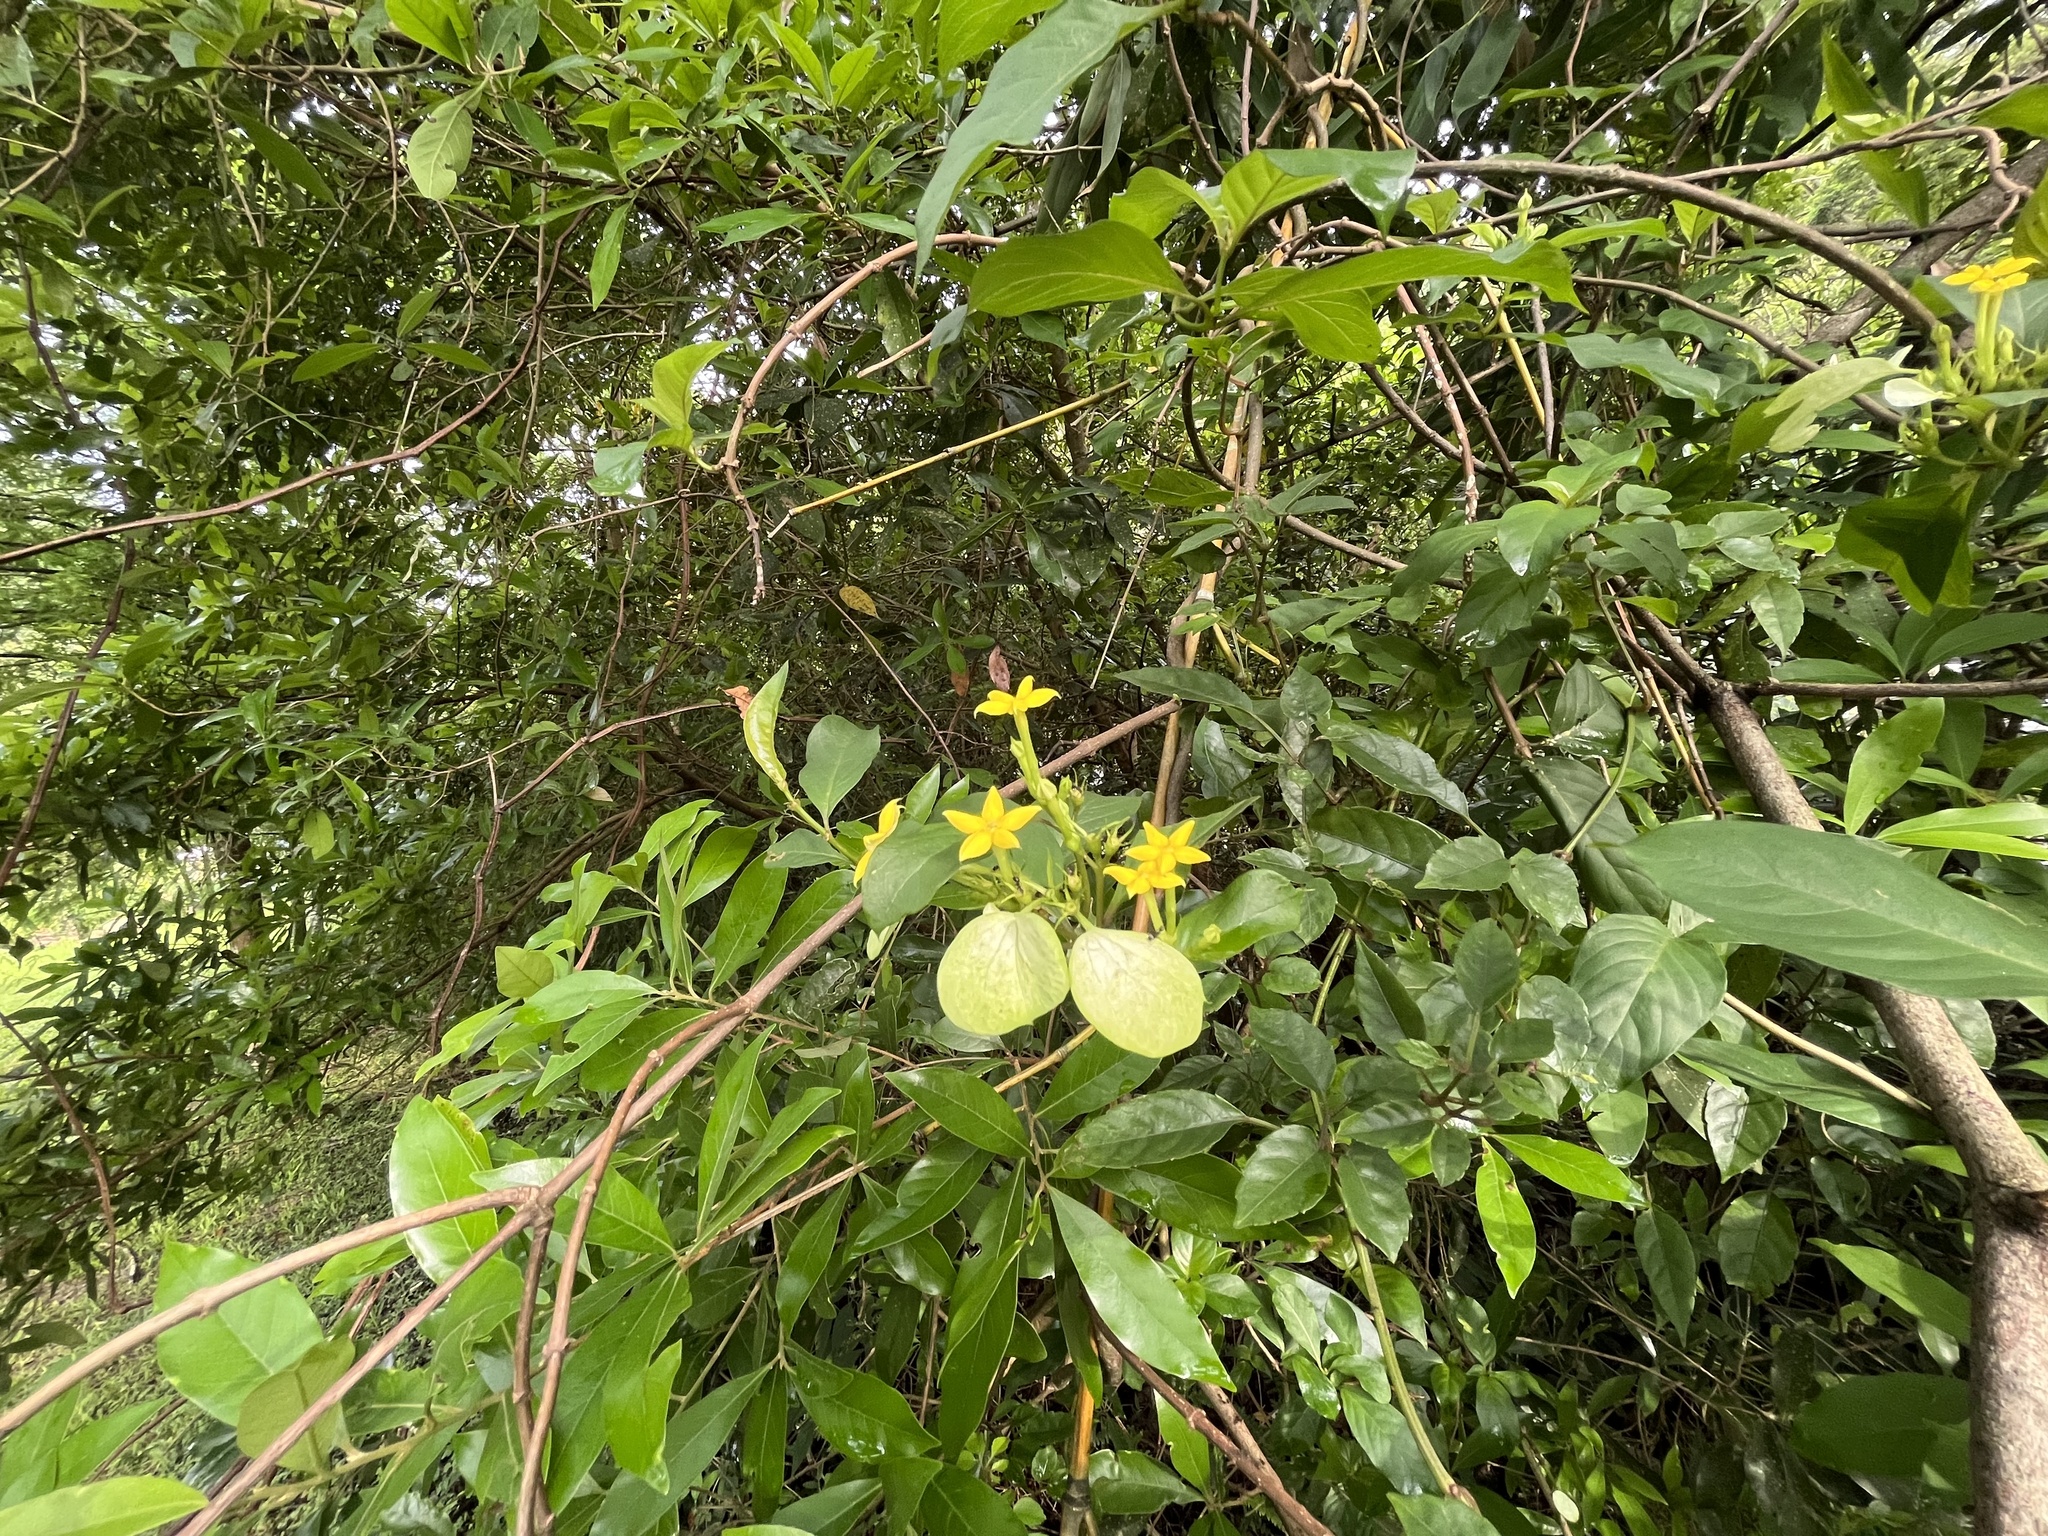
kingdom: Plantae
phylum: Tracheophyta
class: Magnoliopsida
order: Gentianales
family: Rubiaceae
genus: Mussaenda
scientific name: Mussaenda formosana
